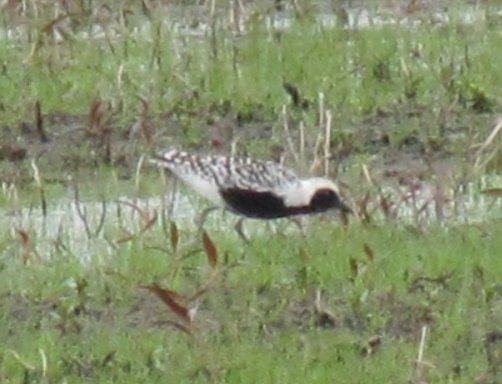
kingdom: Animalia
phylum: Chordata
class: Aves
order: Charadriiformes
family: Charadriidae
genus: Pluvialis
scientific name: Pluvialis squatarola
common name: Grey plover
